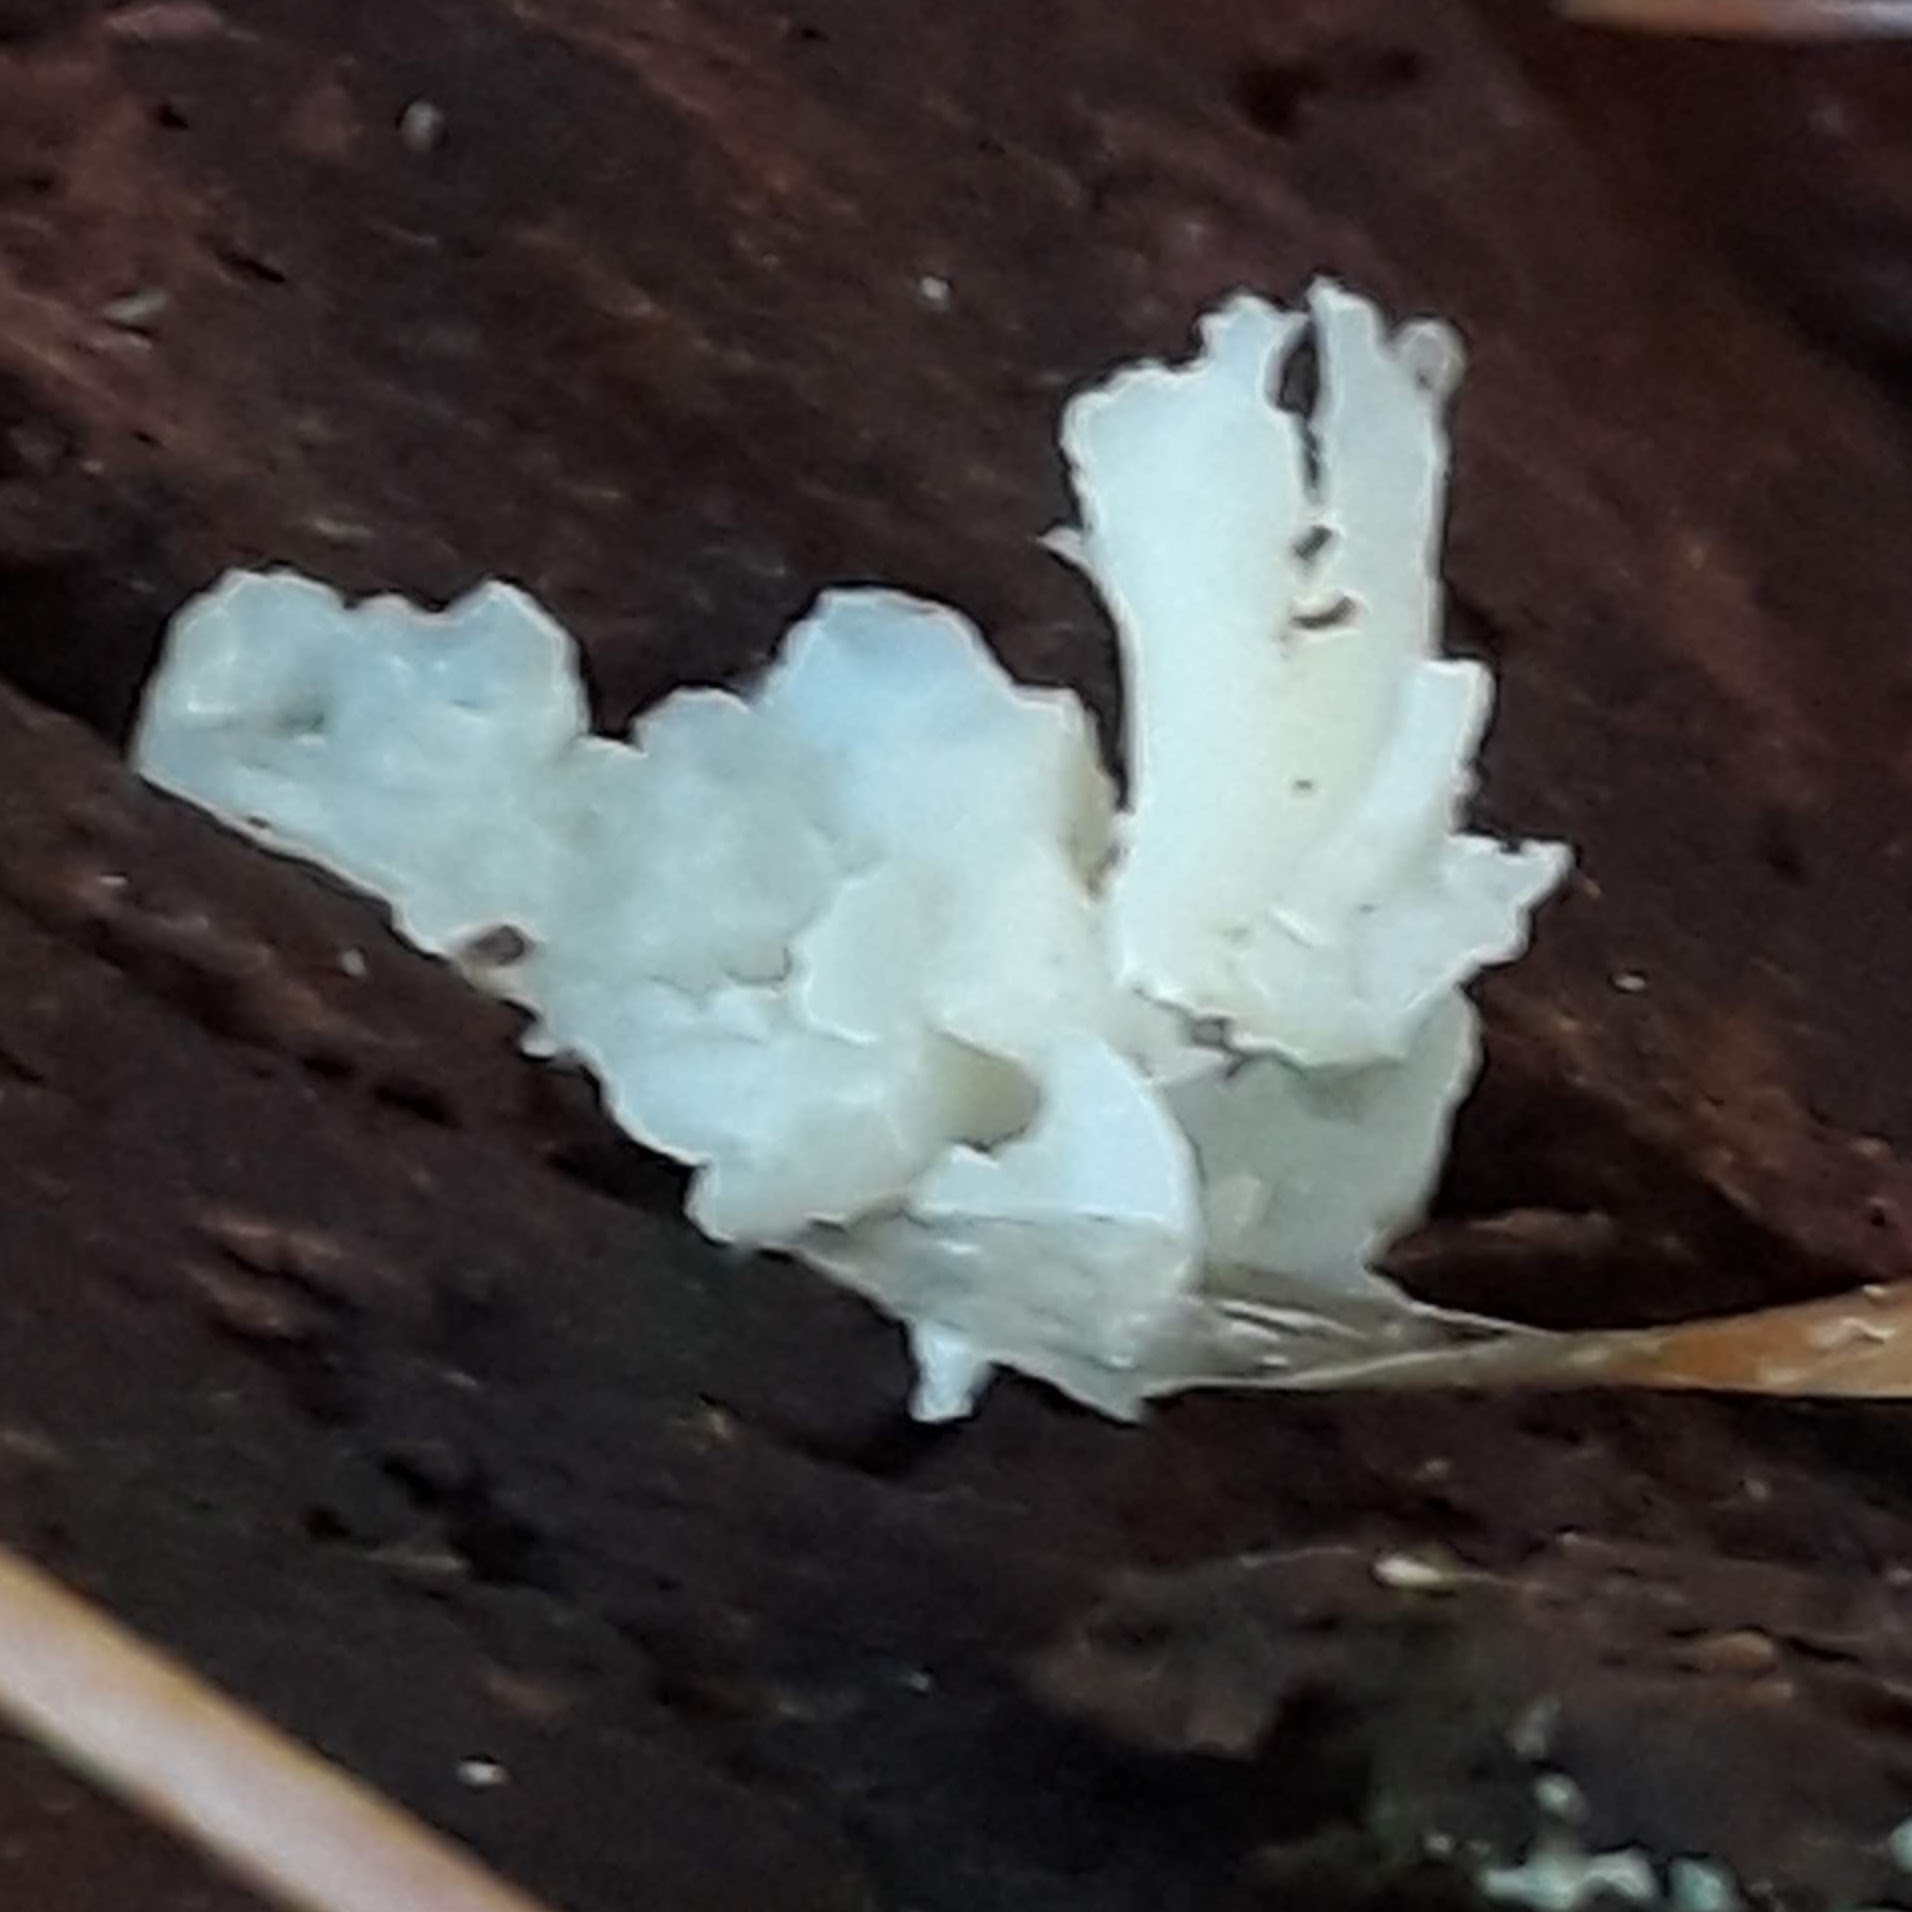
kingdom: Fungi
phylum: Basidiomycota
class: Tremellomycetes
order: Tremellales
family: Tremellaceae
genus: Tremella
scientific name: Tremella fuciformis
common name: Snow fungus
